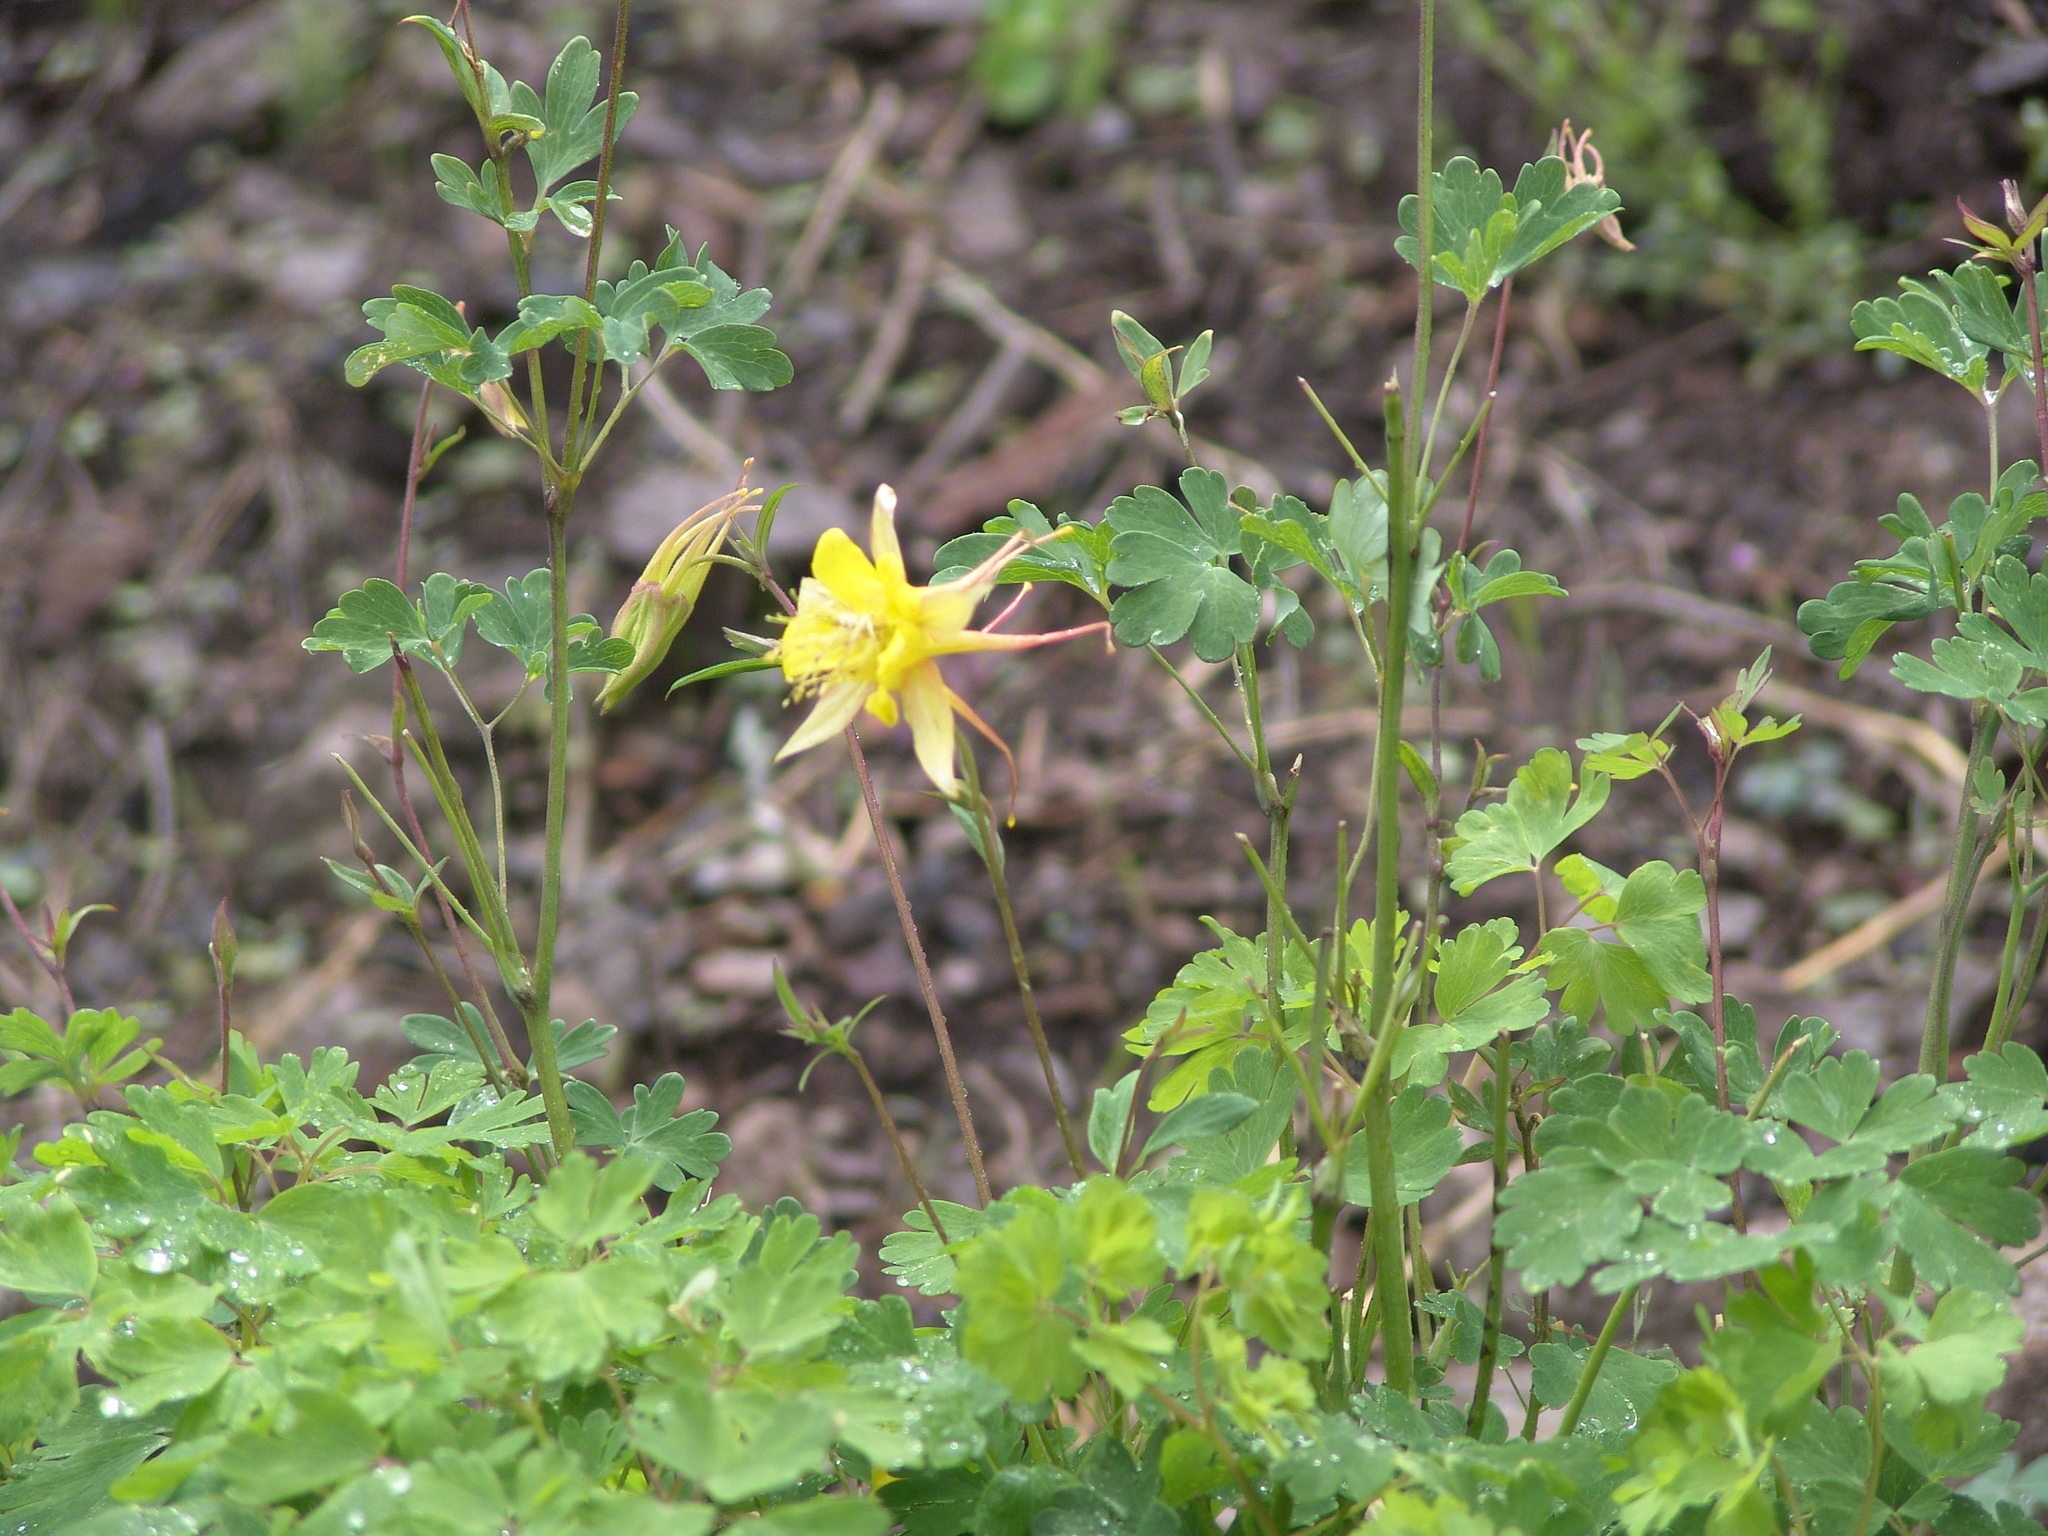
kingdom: Plantae
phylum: Tracheophyta
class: Magnoliopsida
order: Ranunculales
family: Ranunculaceae
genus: Aquilegia
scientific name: Aquilegia chrysantha
